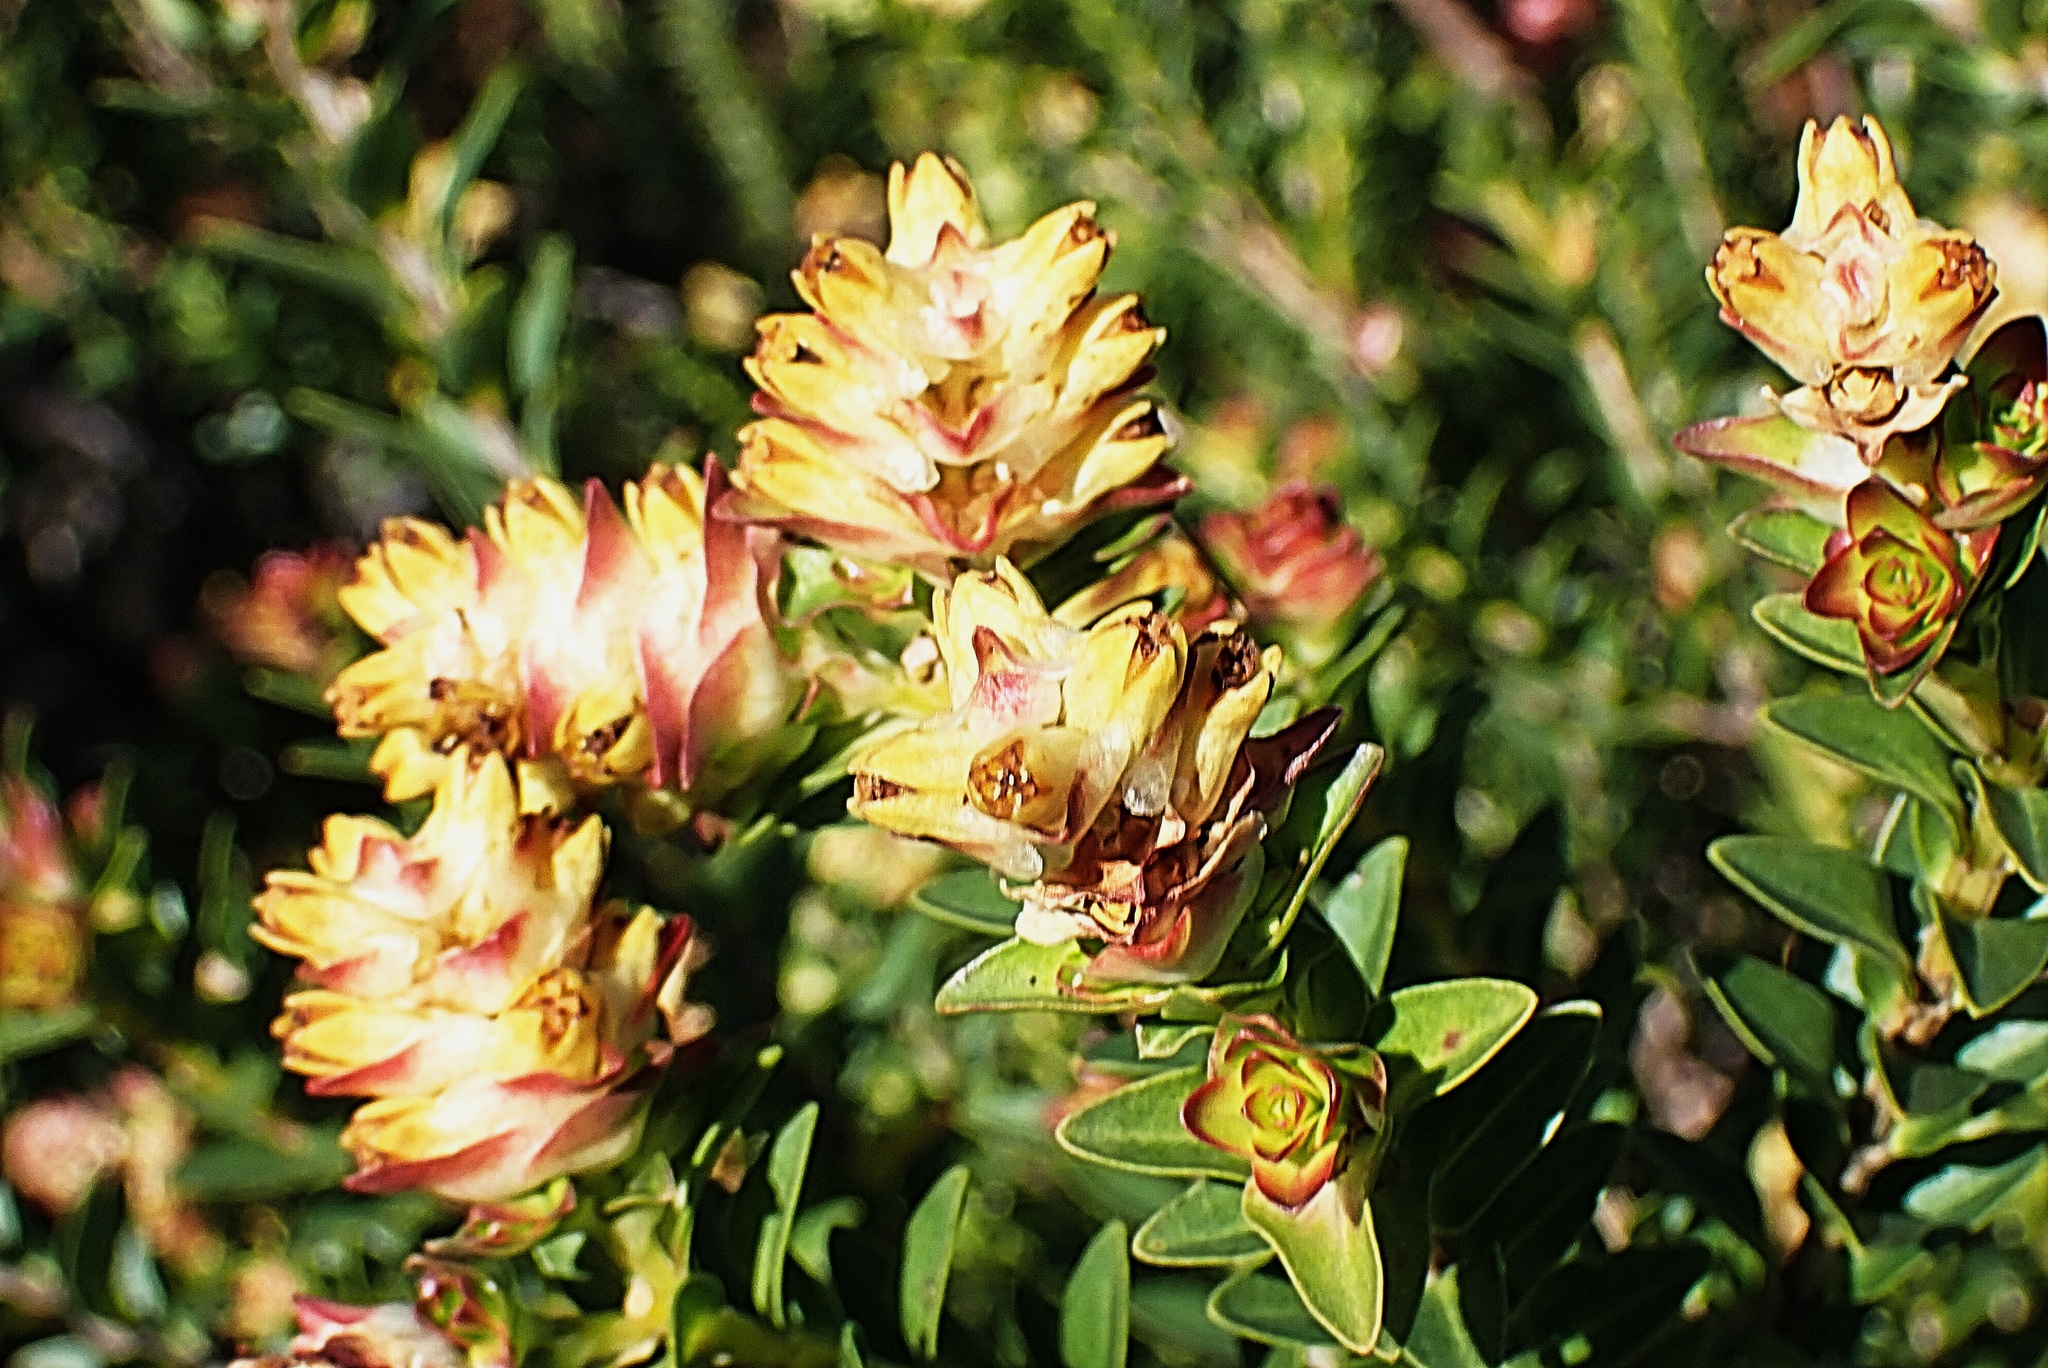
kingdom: Plantae
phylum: Tracheophyta
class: Magnoliopsida
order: Myrtales
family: Penaeaceae
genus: Penaea
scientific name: Penaea cneorum
